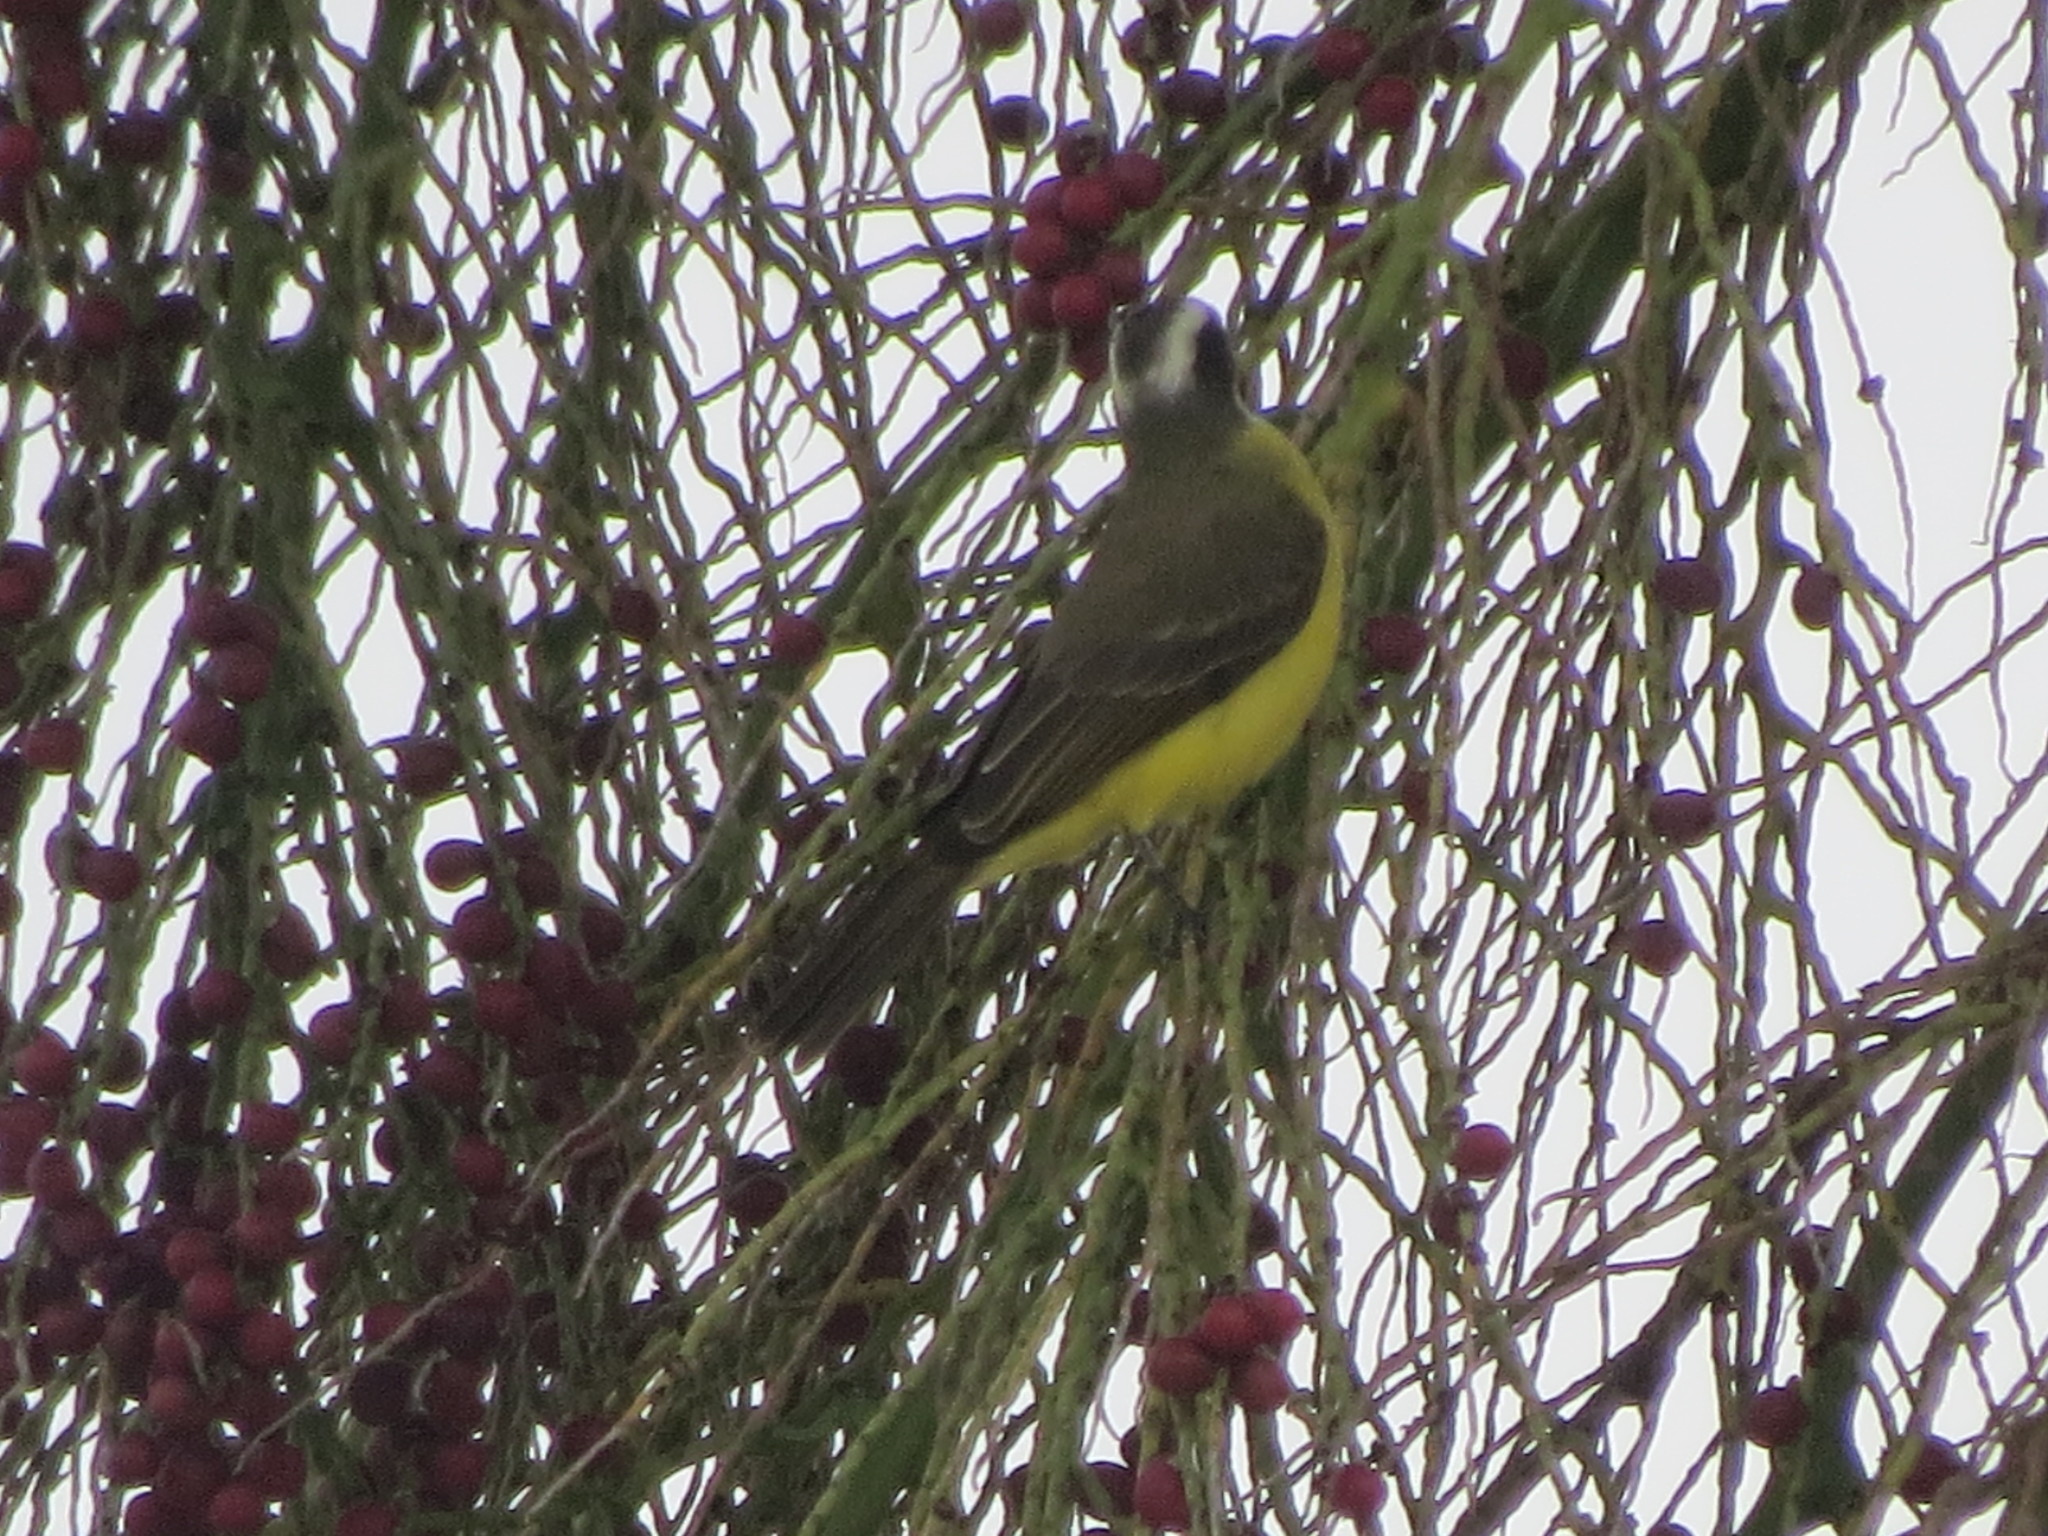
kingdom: Animalia
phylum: Chordata
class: Aves
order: Passeriformes
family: Tyrannidae
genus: Myiozetetes
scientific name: Myiozetetes similis
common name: Social flycatcher
